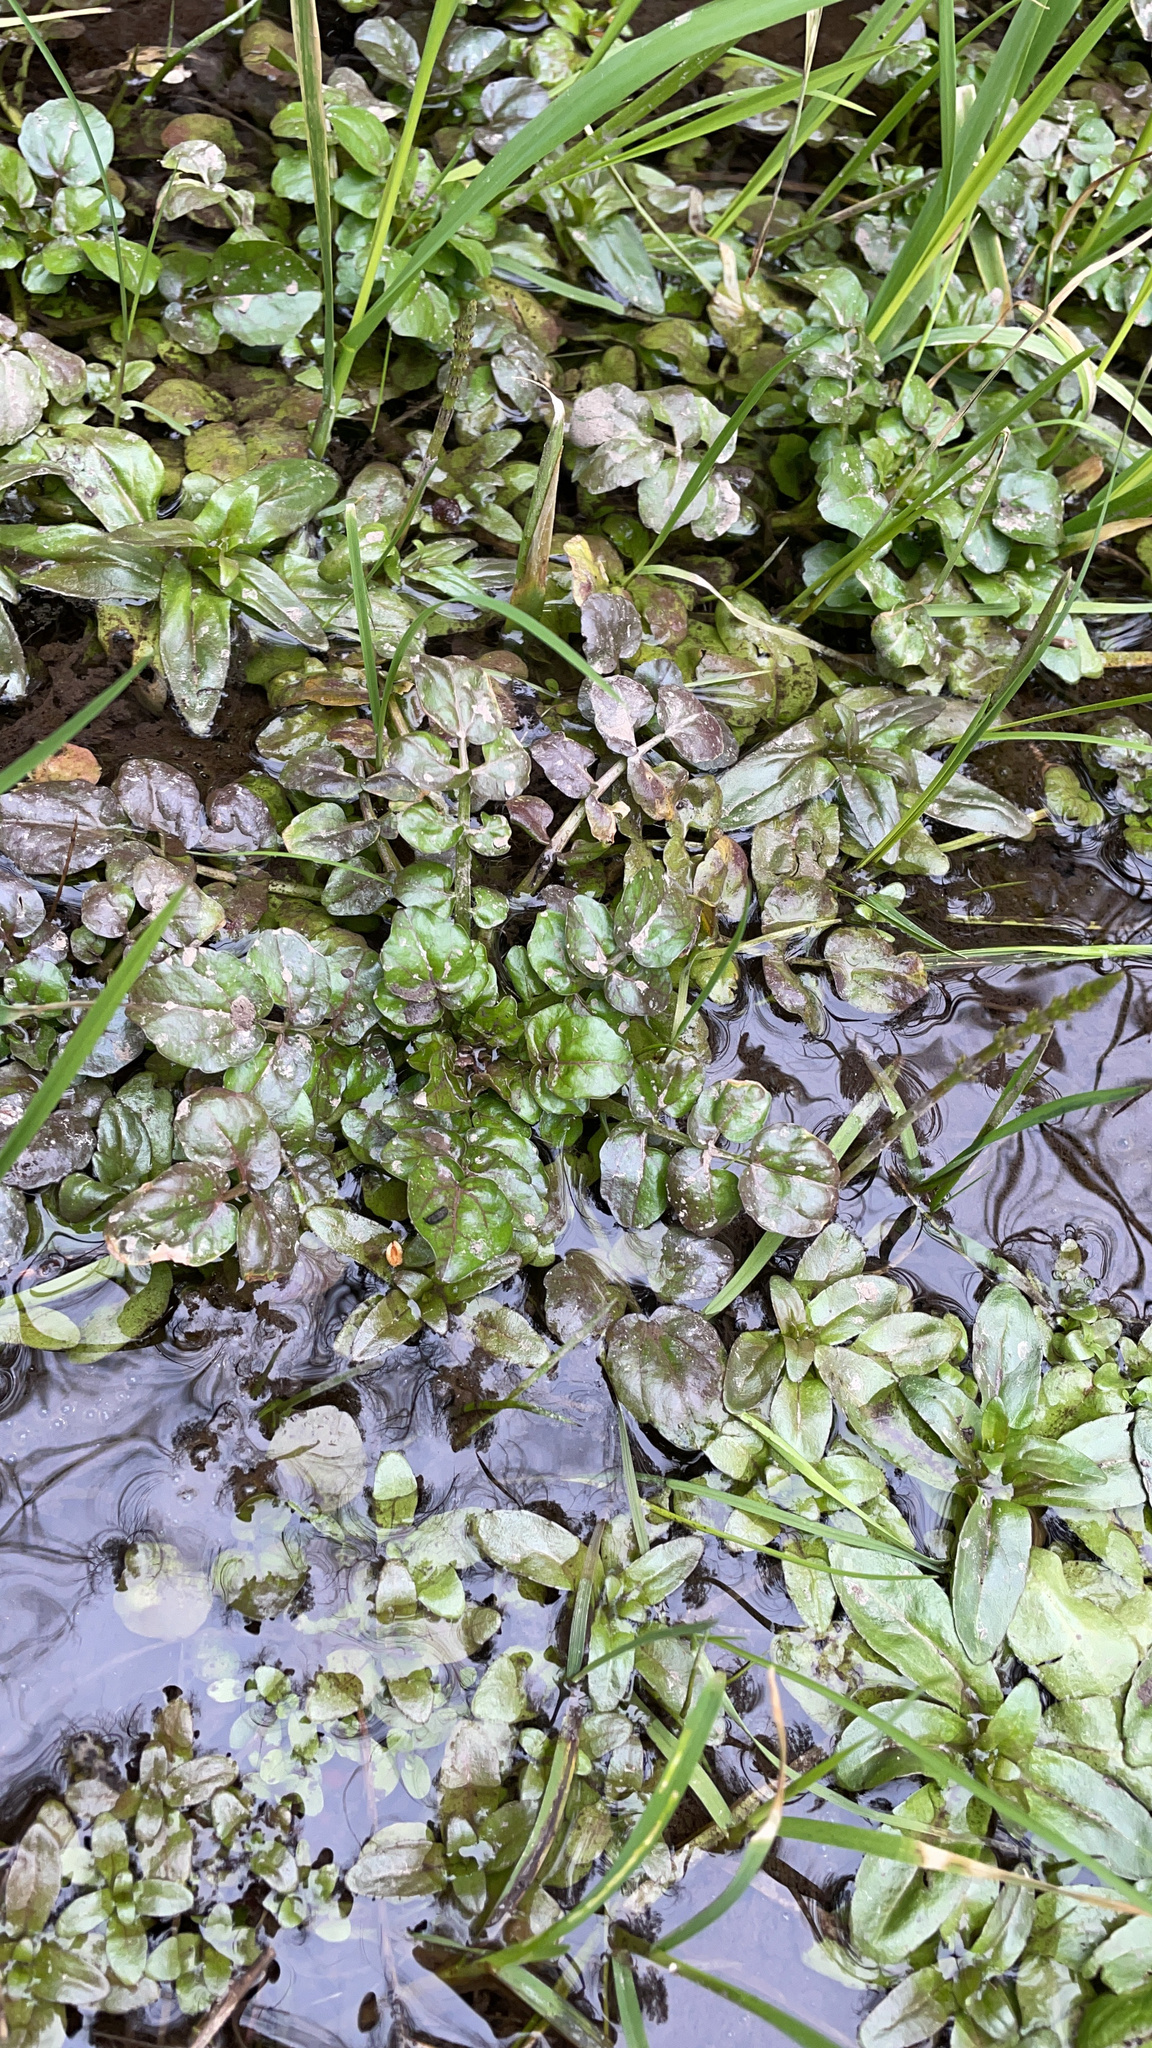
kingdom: Plantae
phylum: Tracheophyta
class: Magnoliopsida
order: Brassicales
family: Brassicaceae
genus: Nasturtium
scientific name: Nasturtium officinale
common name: Watercress
